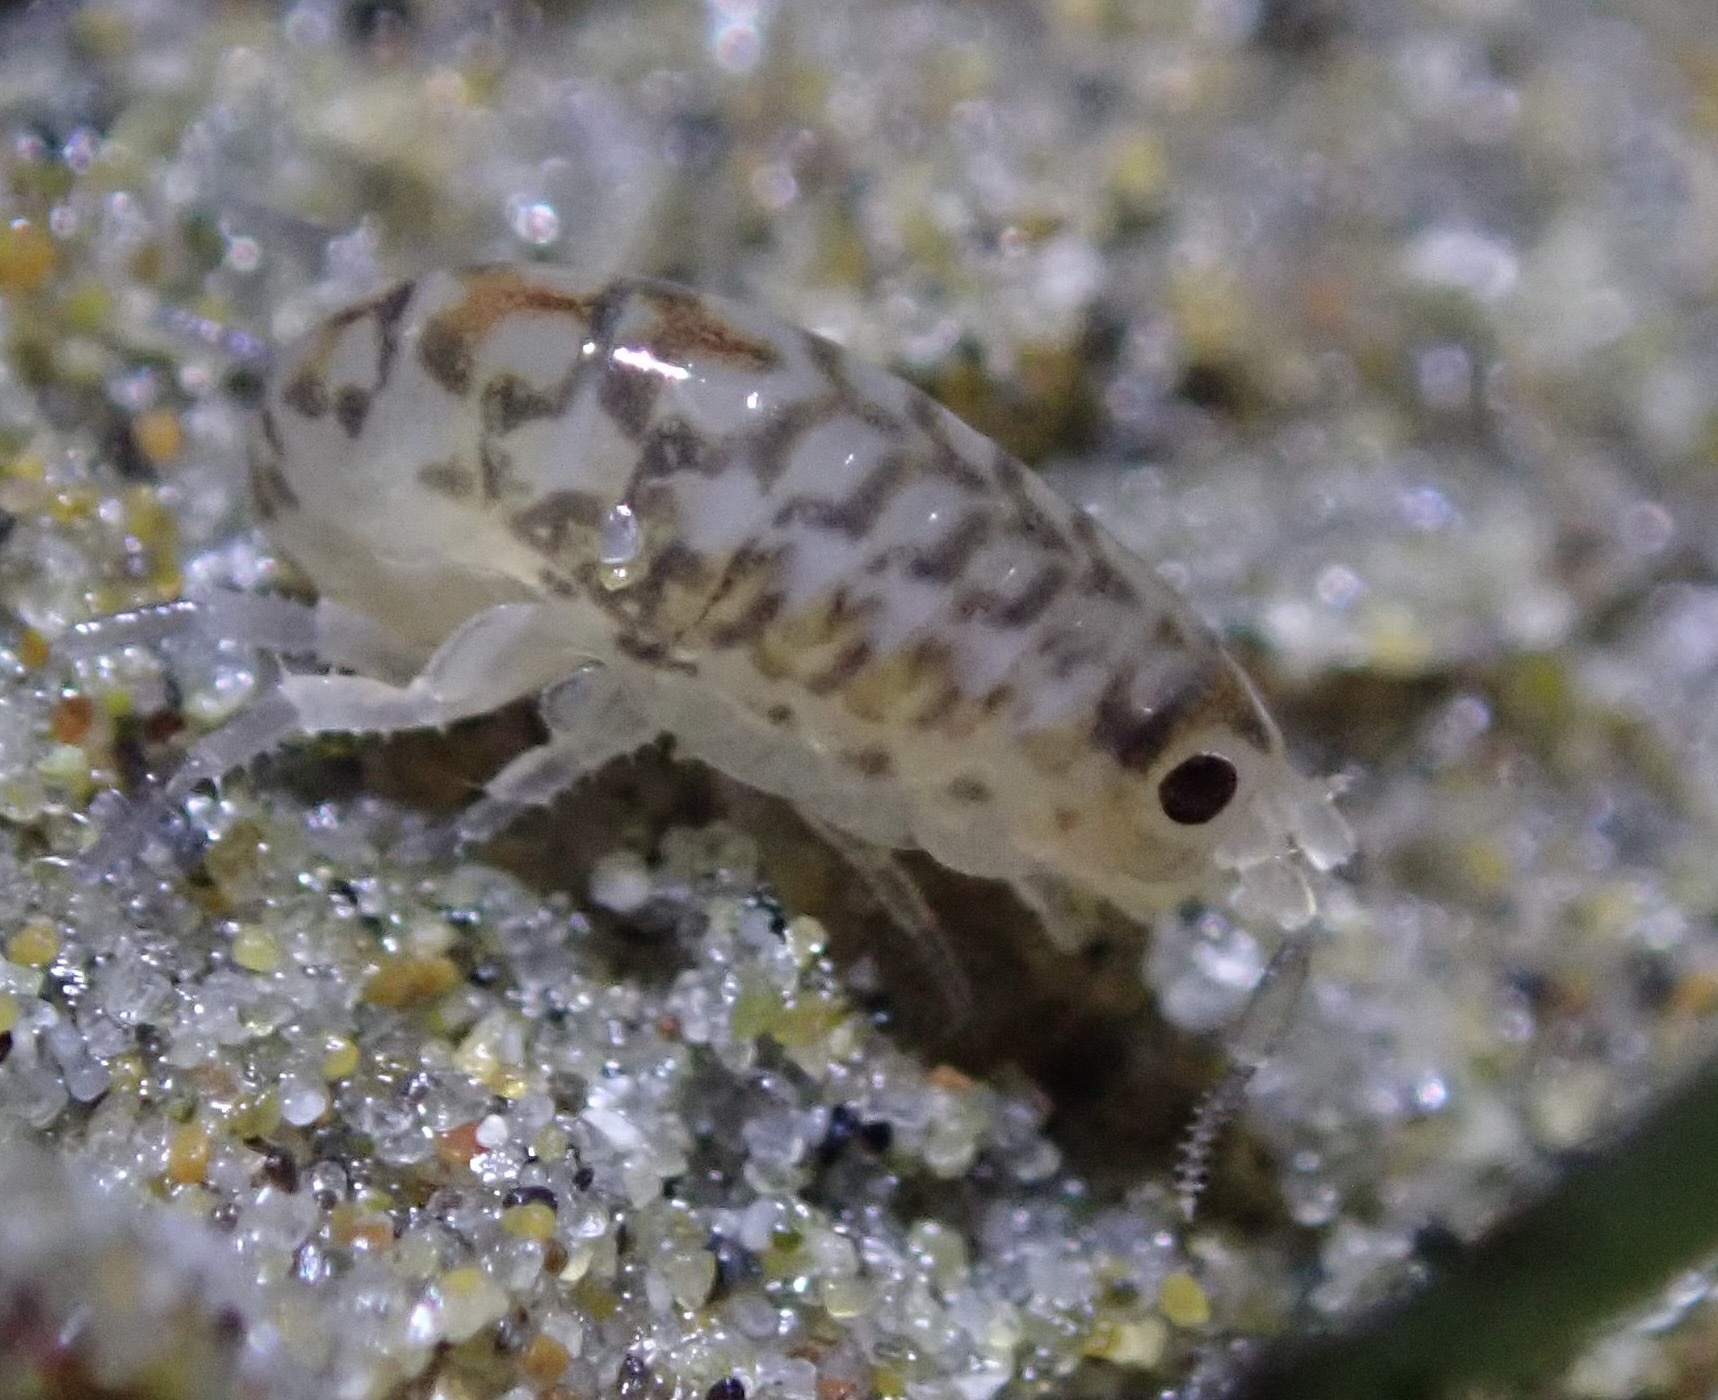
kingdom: Animalia
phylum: Arthropoda
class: Malacostraca
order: Amphipoda
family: Talitridae
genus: Megalorchestia
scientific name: Megalorchestia benedicti
